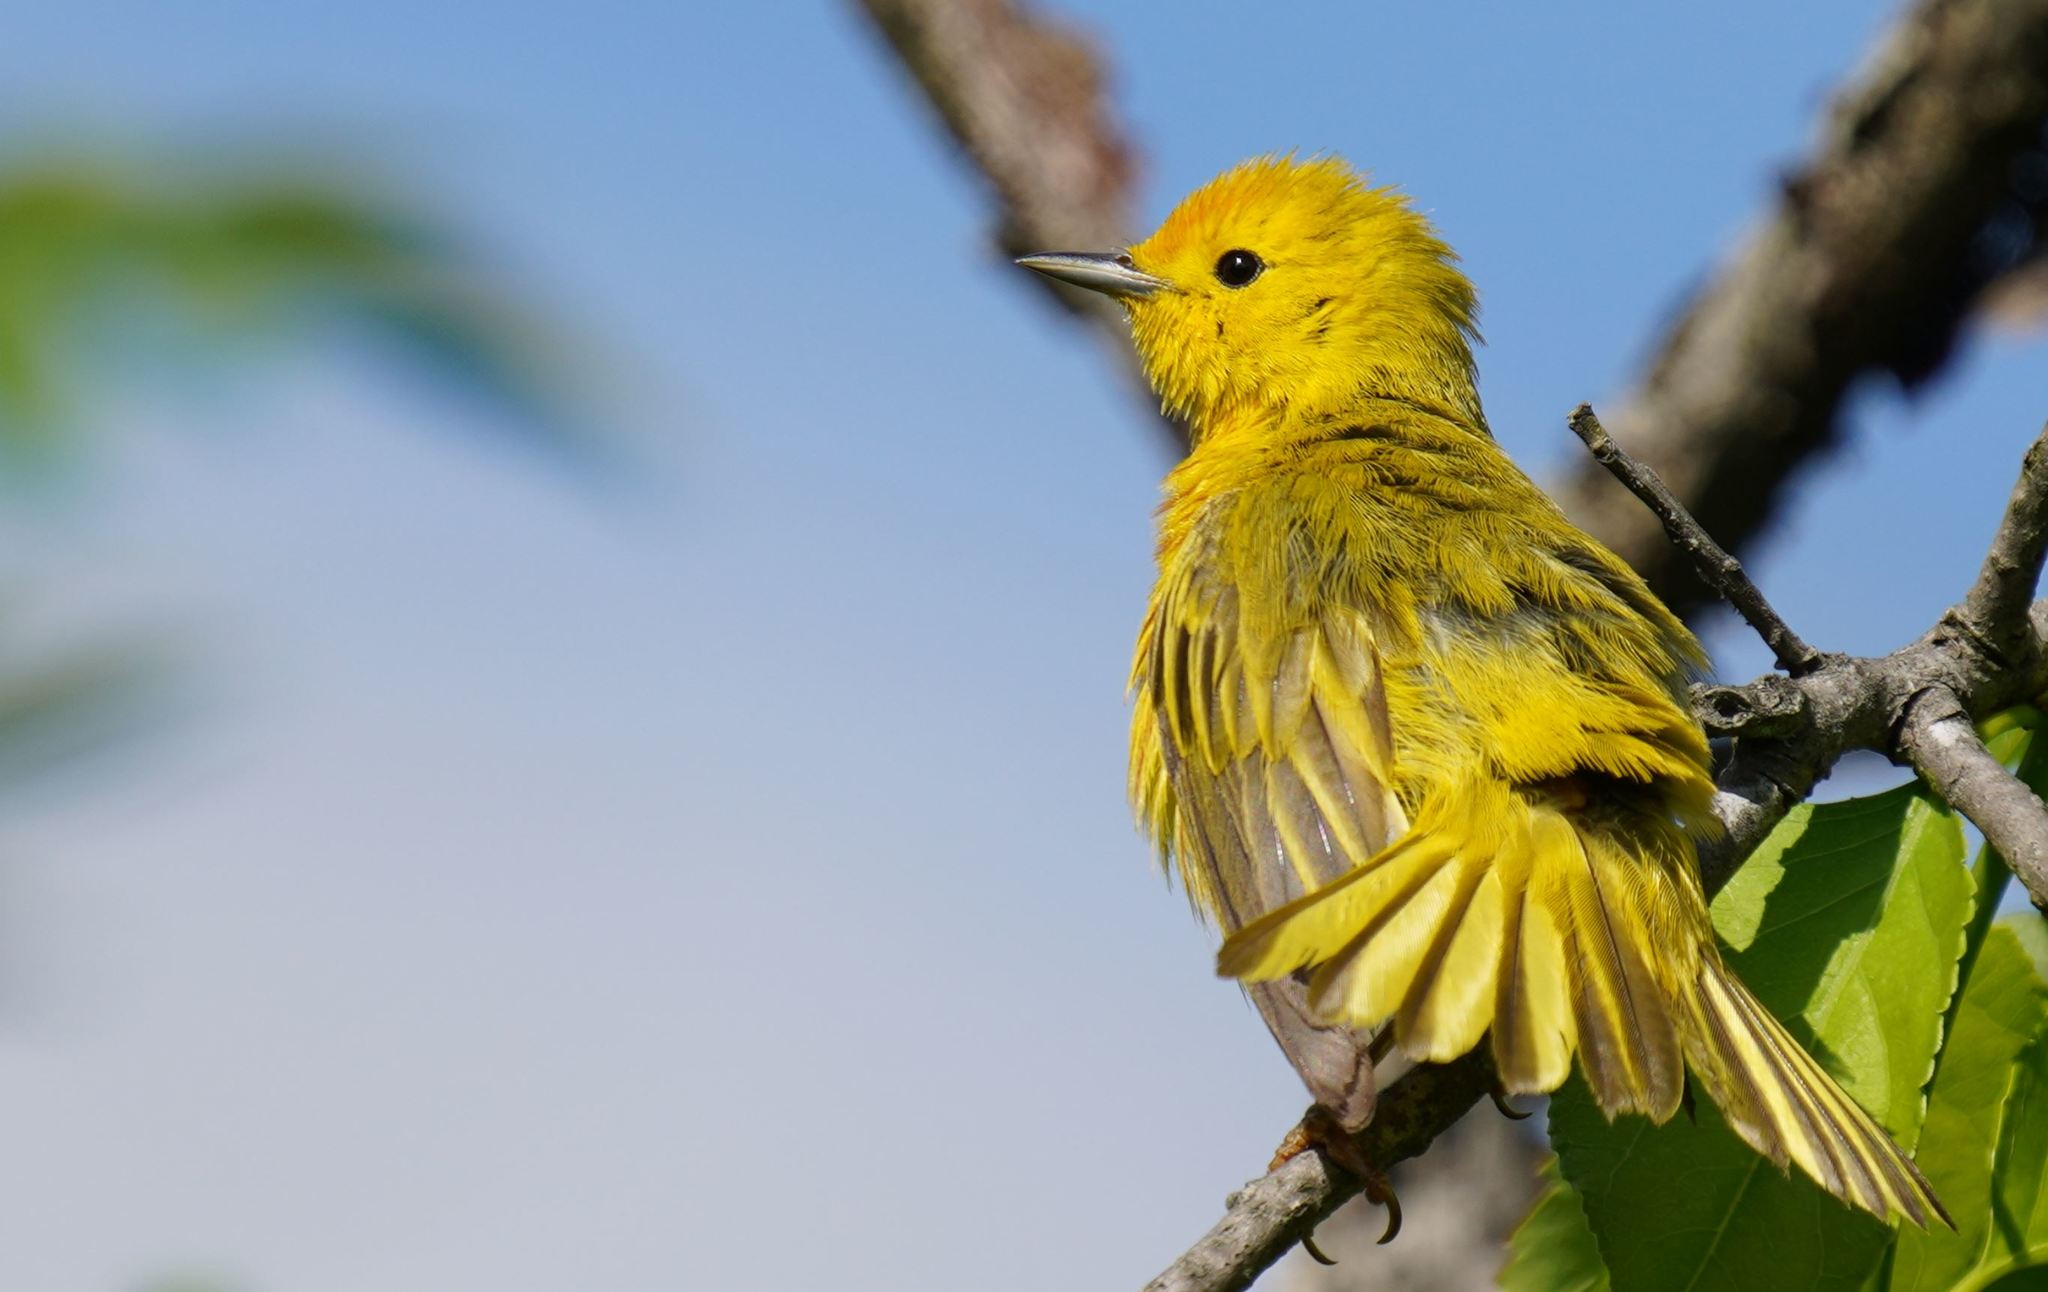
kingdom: Animalia
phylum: Chordata
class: Aves
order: Passeriformes
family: Parulidae
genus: Setophaga
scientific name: Setophaga petechia
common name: Yellow warbler
